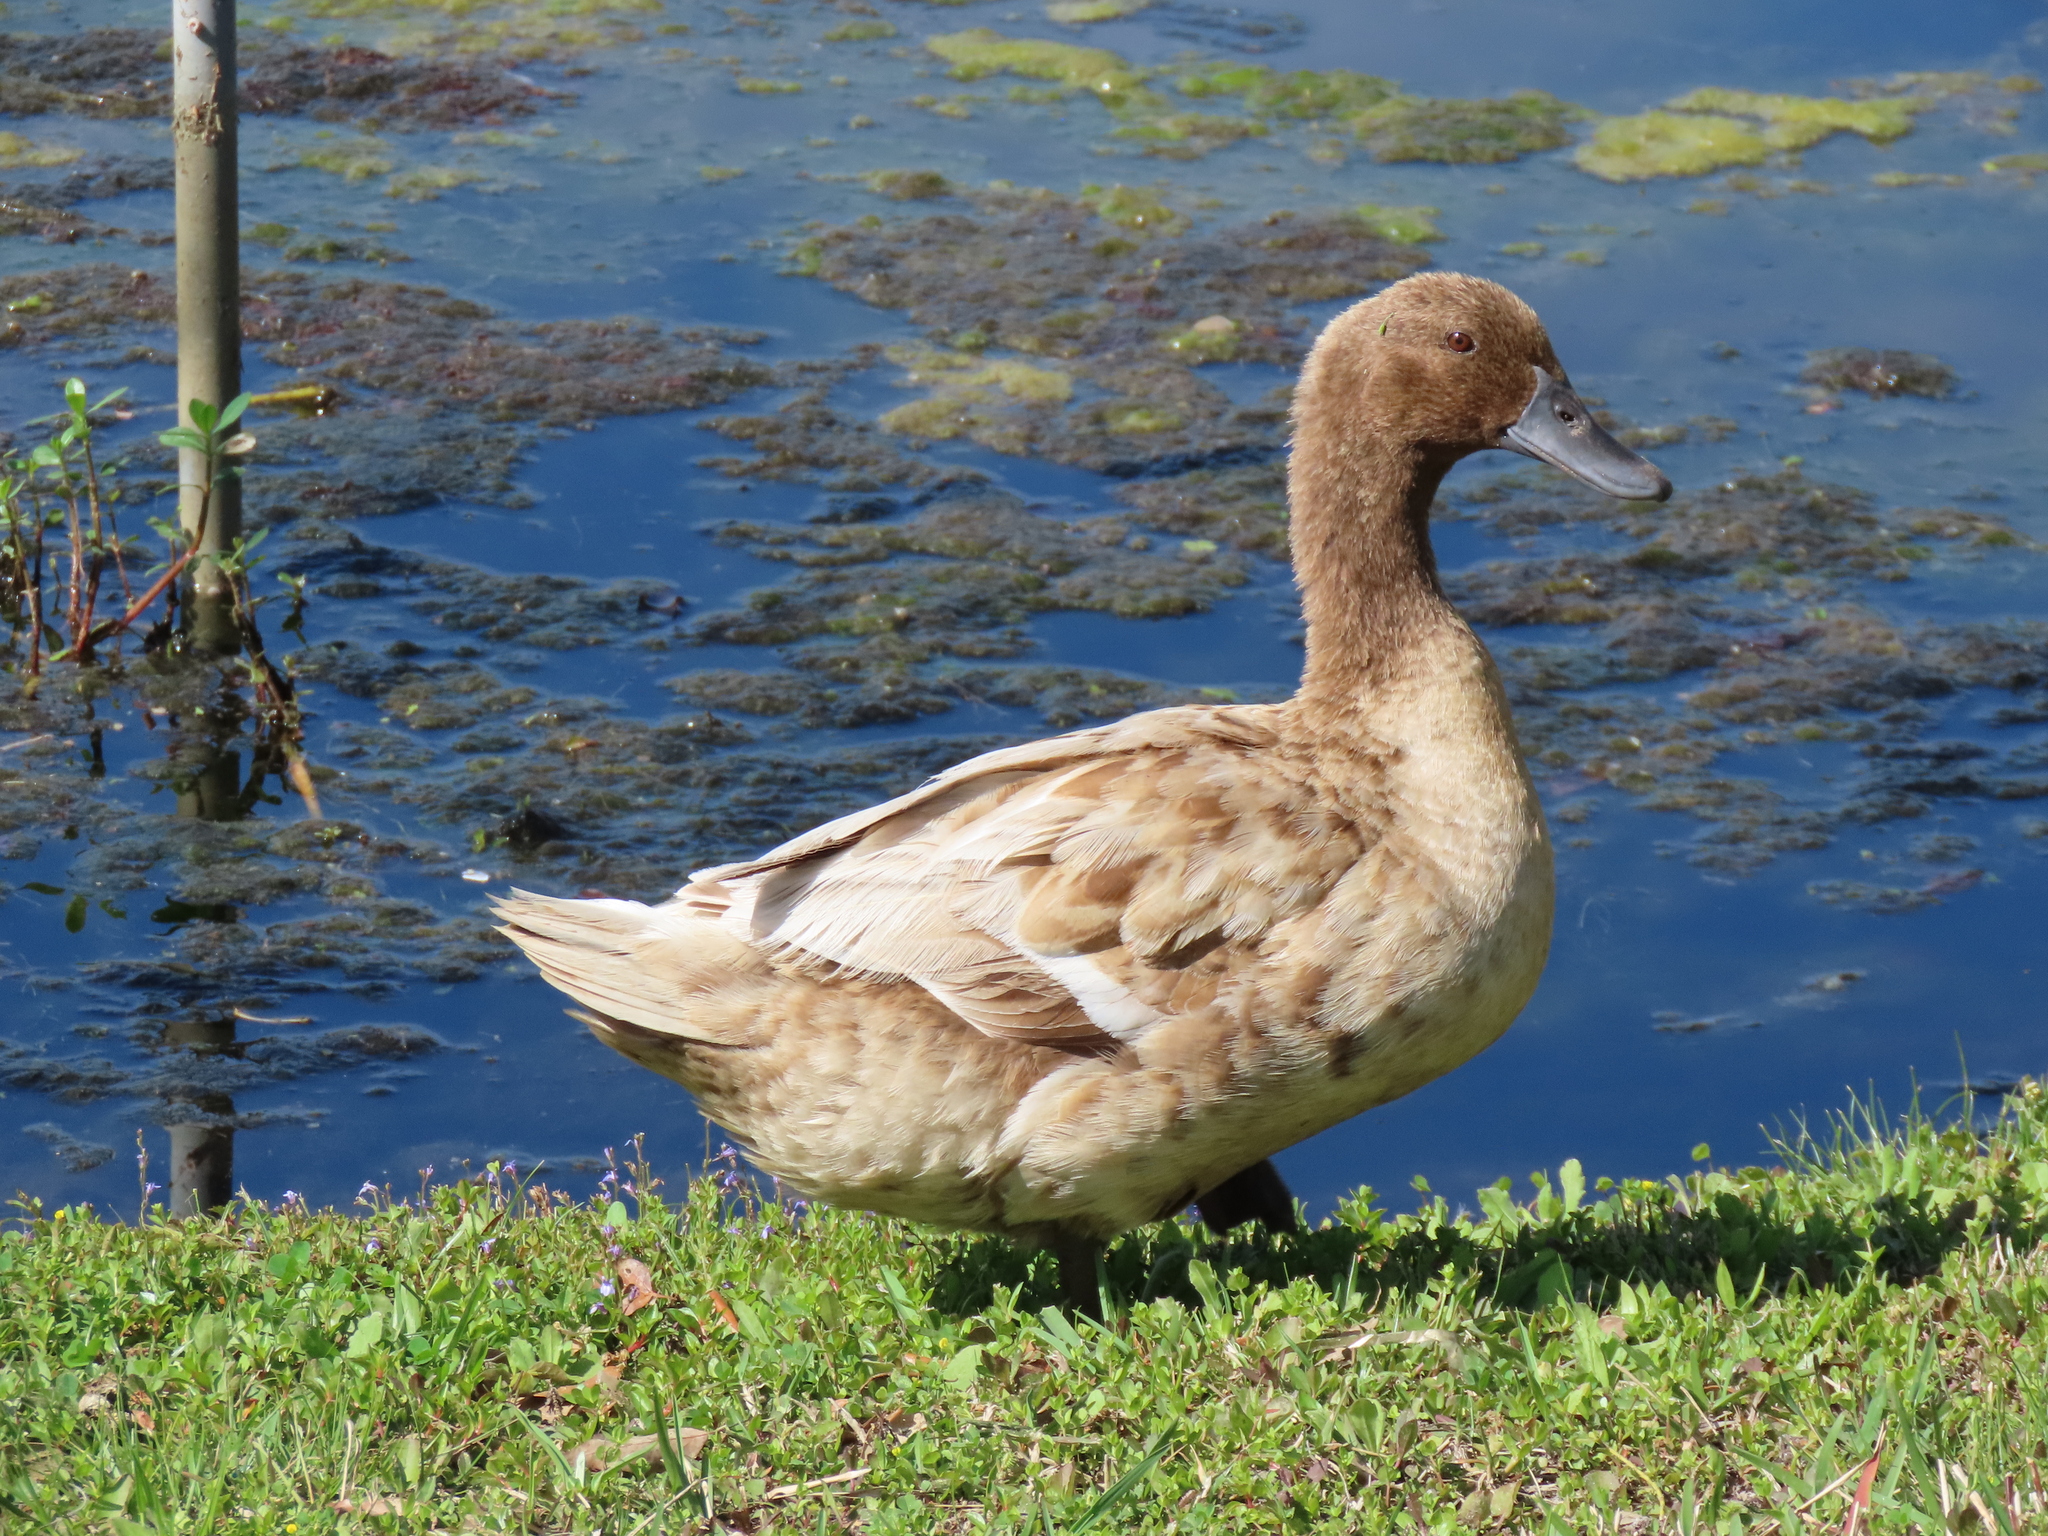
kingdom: Animalia
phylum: Chordata
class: Aves
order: Anseriformes
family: Anatidae
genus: Anas
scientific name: Anas platyrhynchos
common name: Mallard
